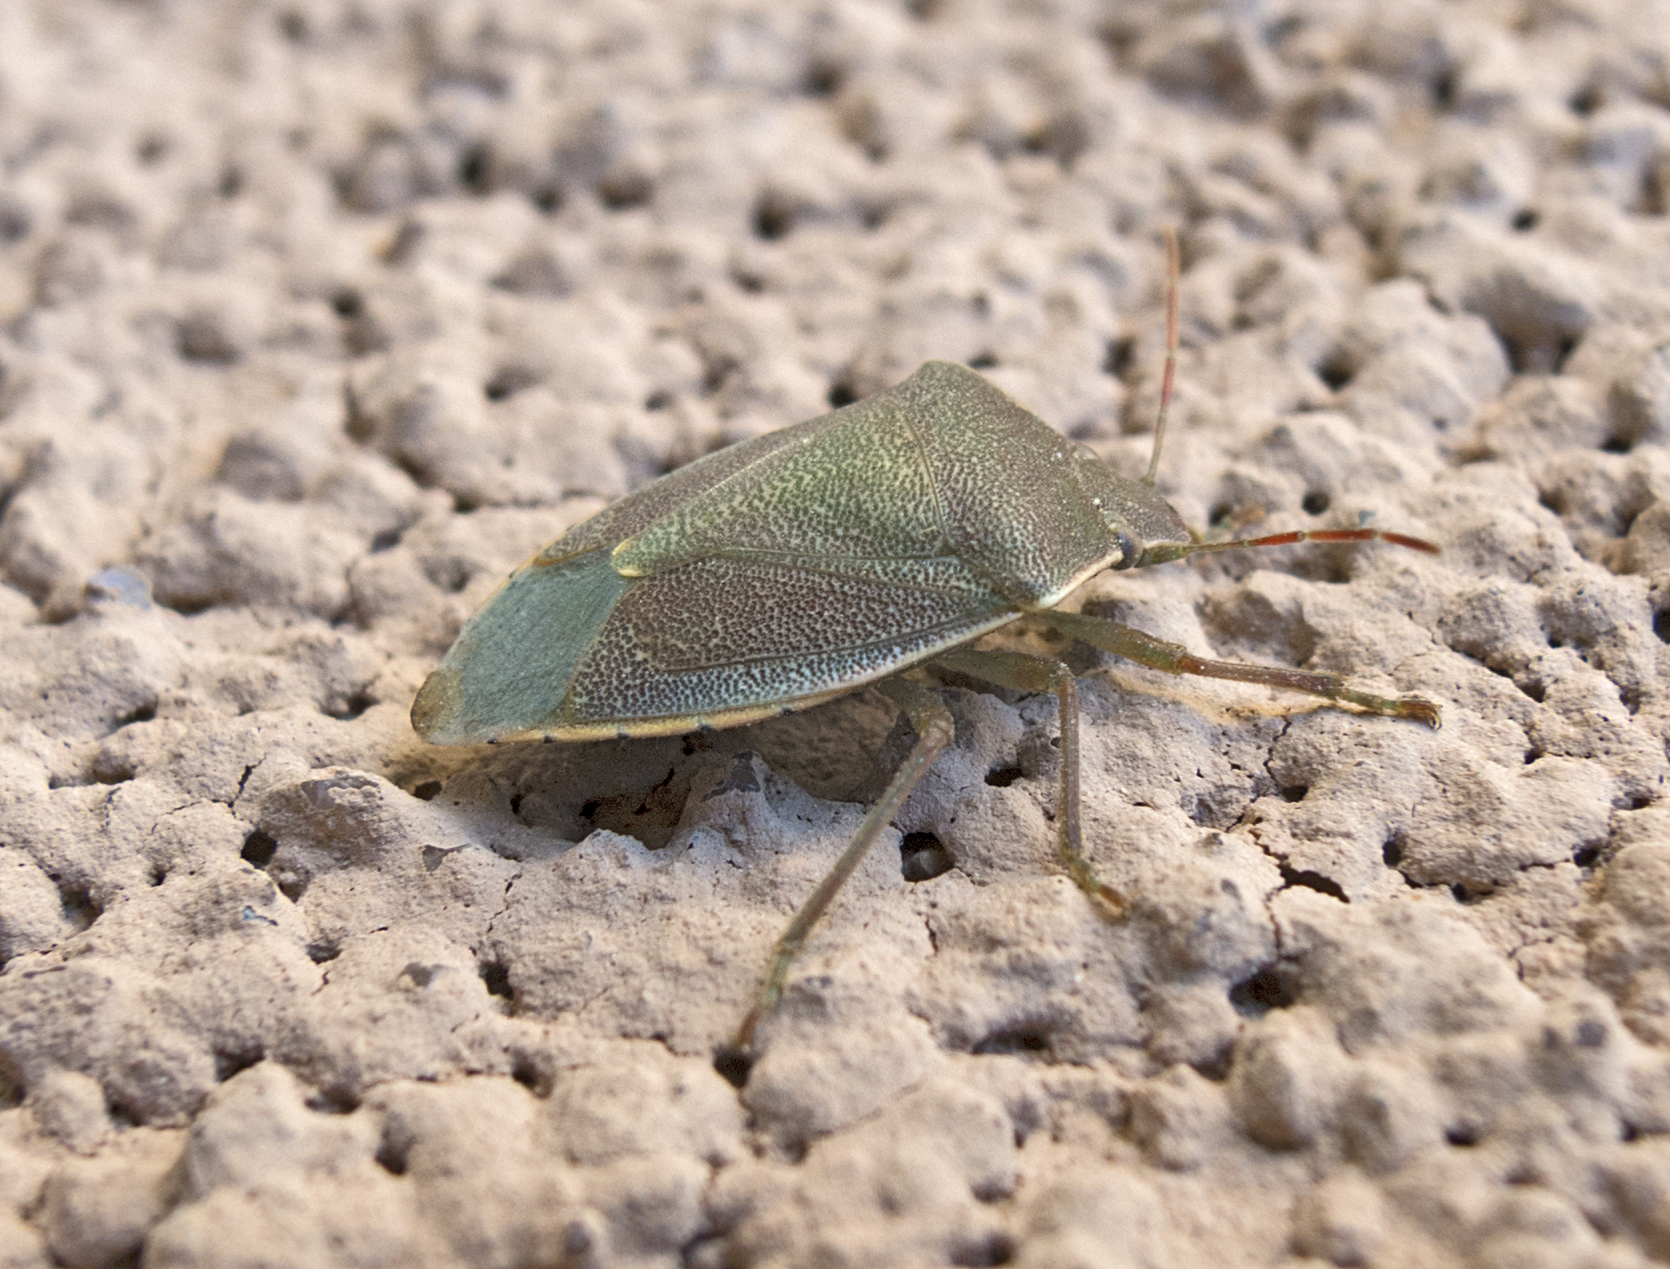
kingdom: Animalia
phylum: Arthropoda
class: Insecta
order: Hemiptera
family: Pentatomidae
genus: Acrosternum
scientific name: Acrosternum heegeri
